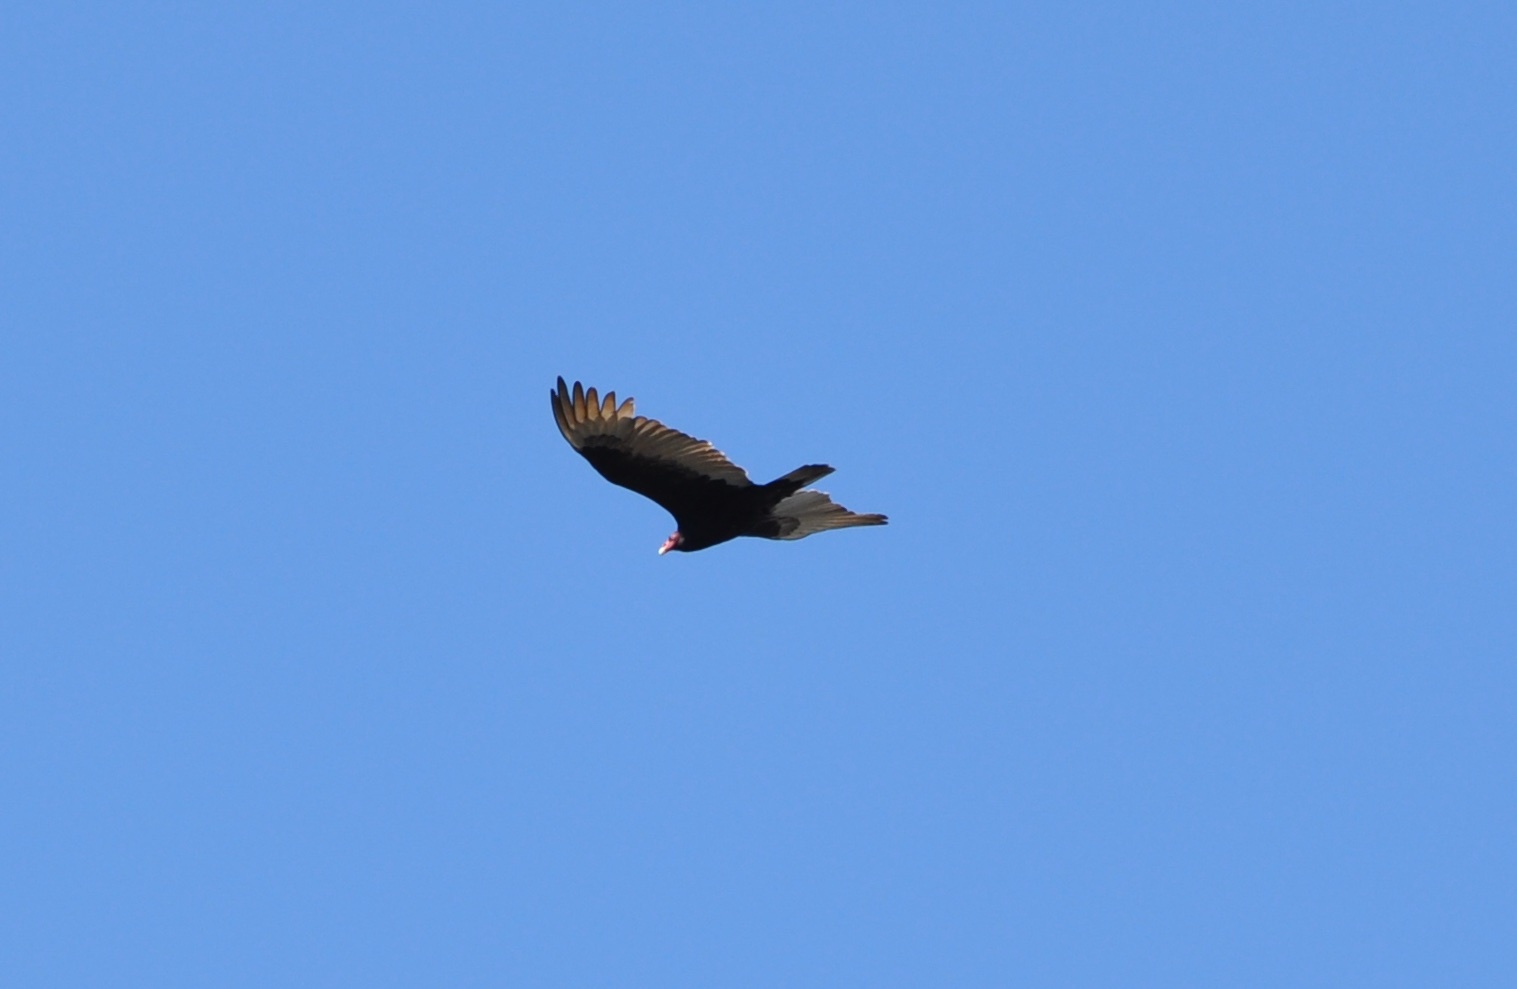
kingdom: Animalia
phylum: Chordata
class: Aves
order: Accipitriformes
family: Cathartidae
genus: Cathartes
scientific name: Cathartes aura
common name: Turkey vulture
